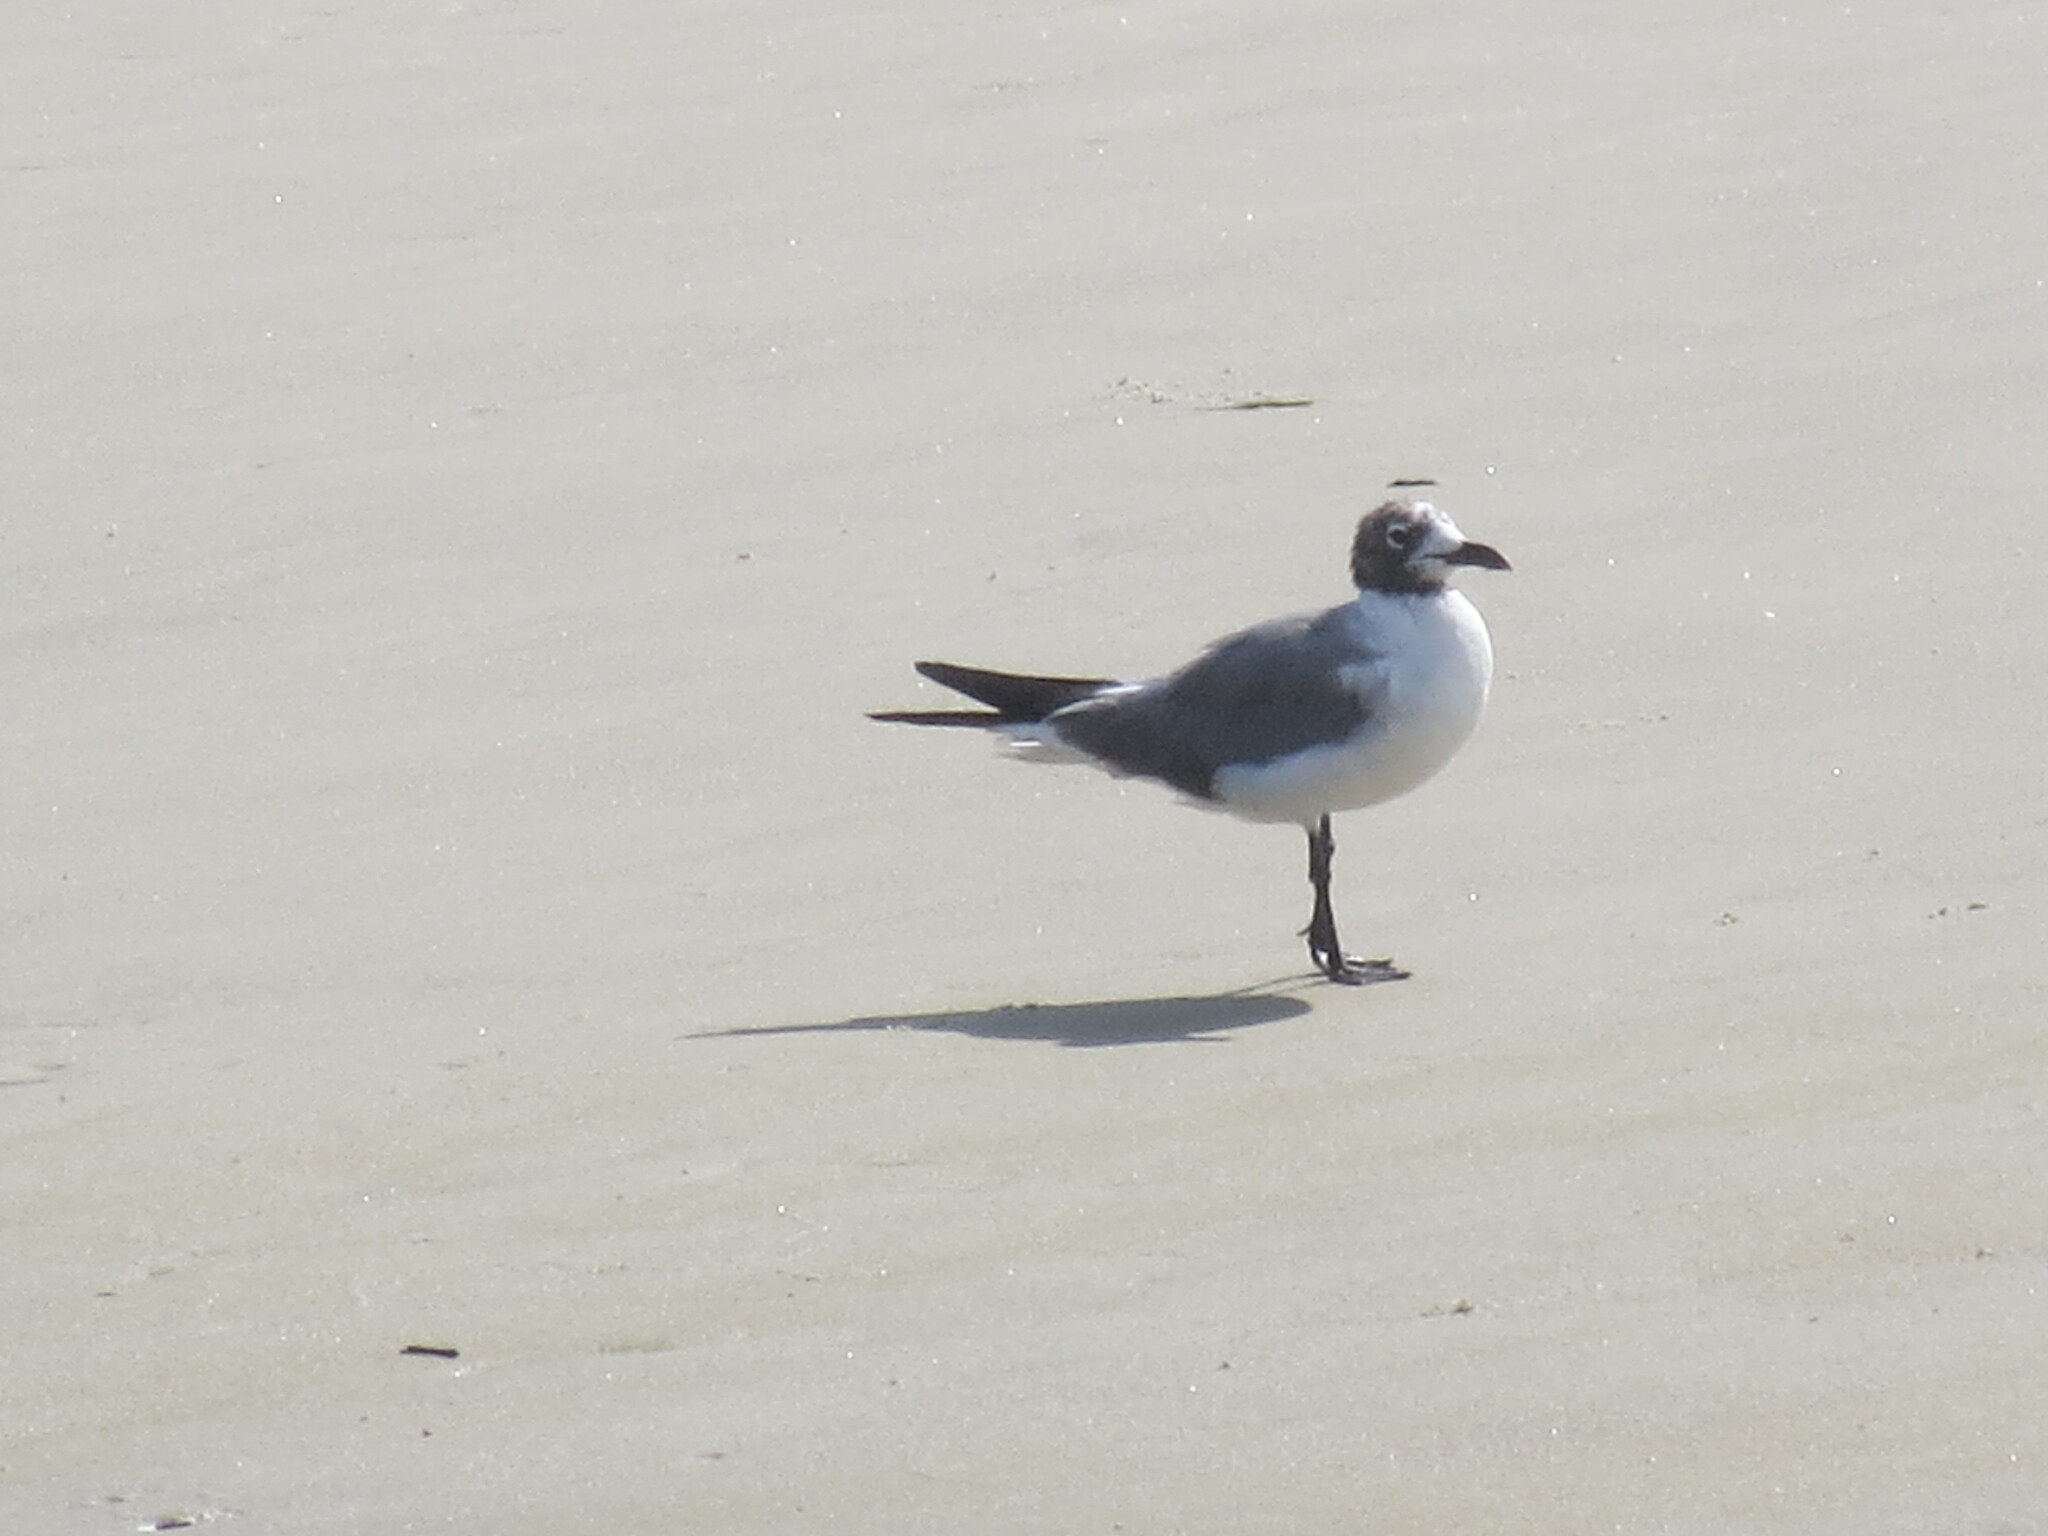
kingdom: Animalia
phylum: Chordata
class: Aves
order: Charadriiformes
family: Laridae
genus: Leucophaeus
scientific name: Leucophaeus atricilla
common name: Laughing gull
